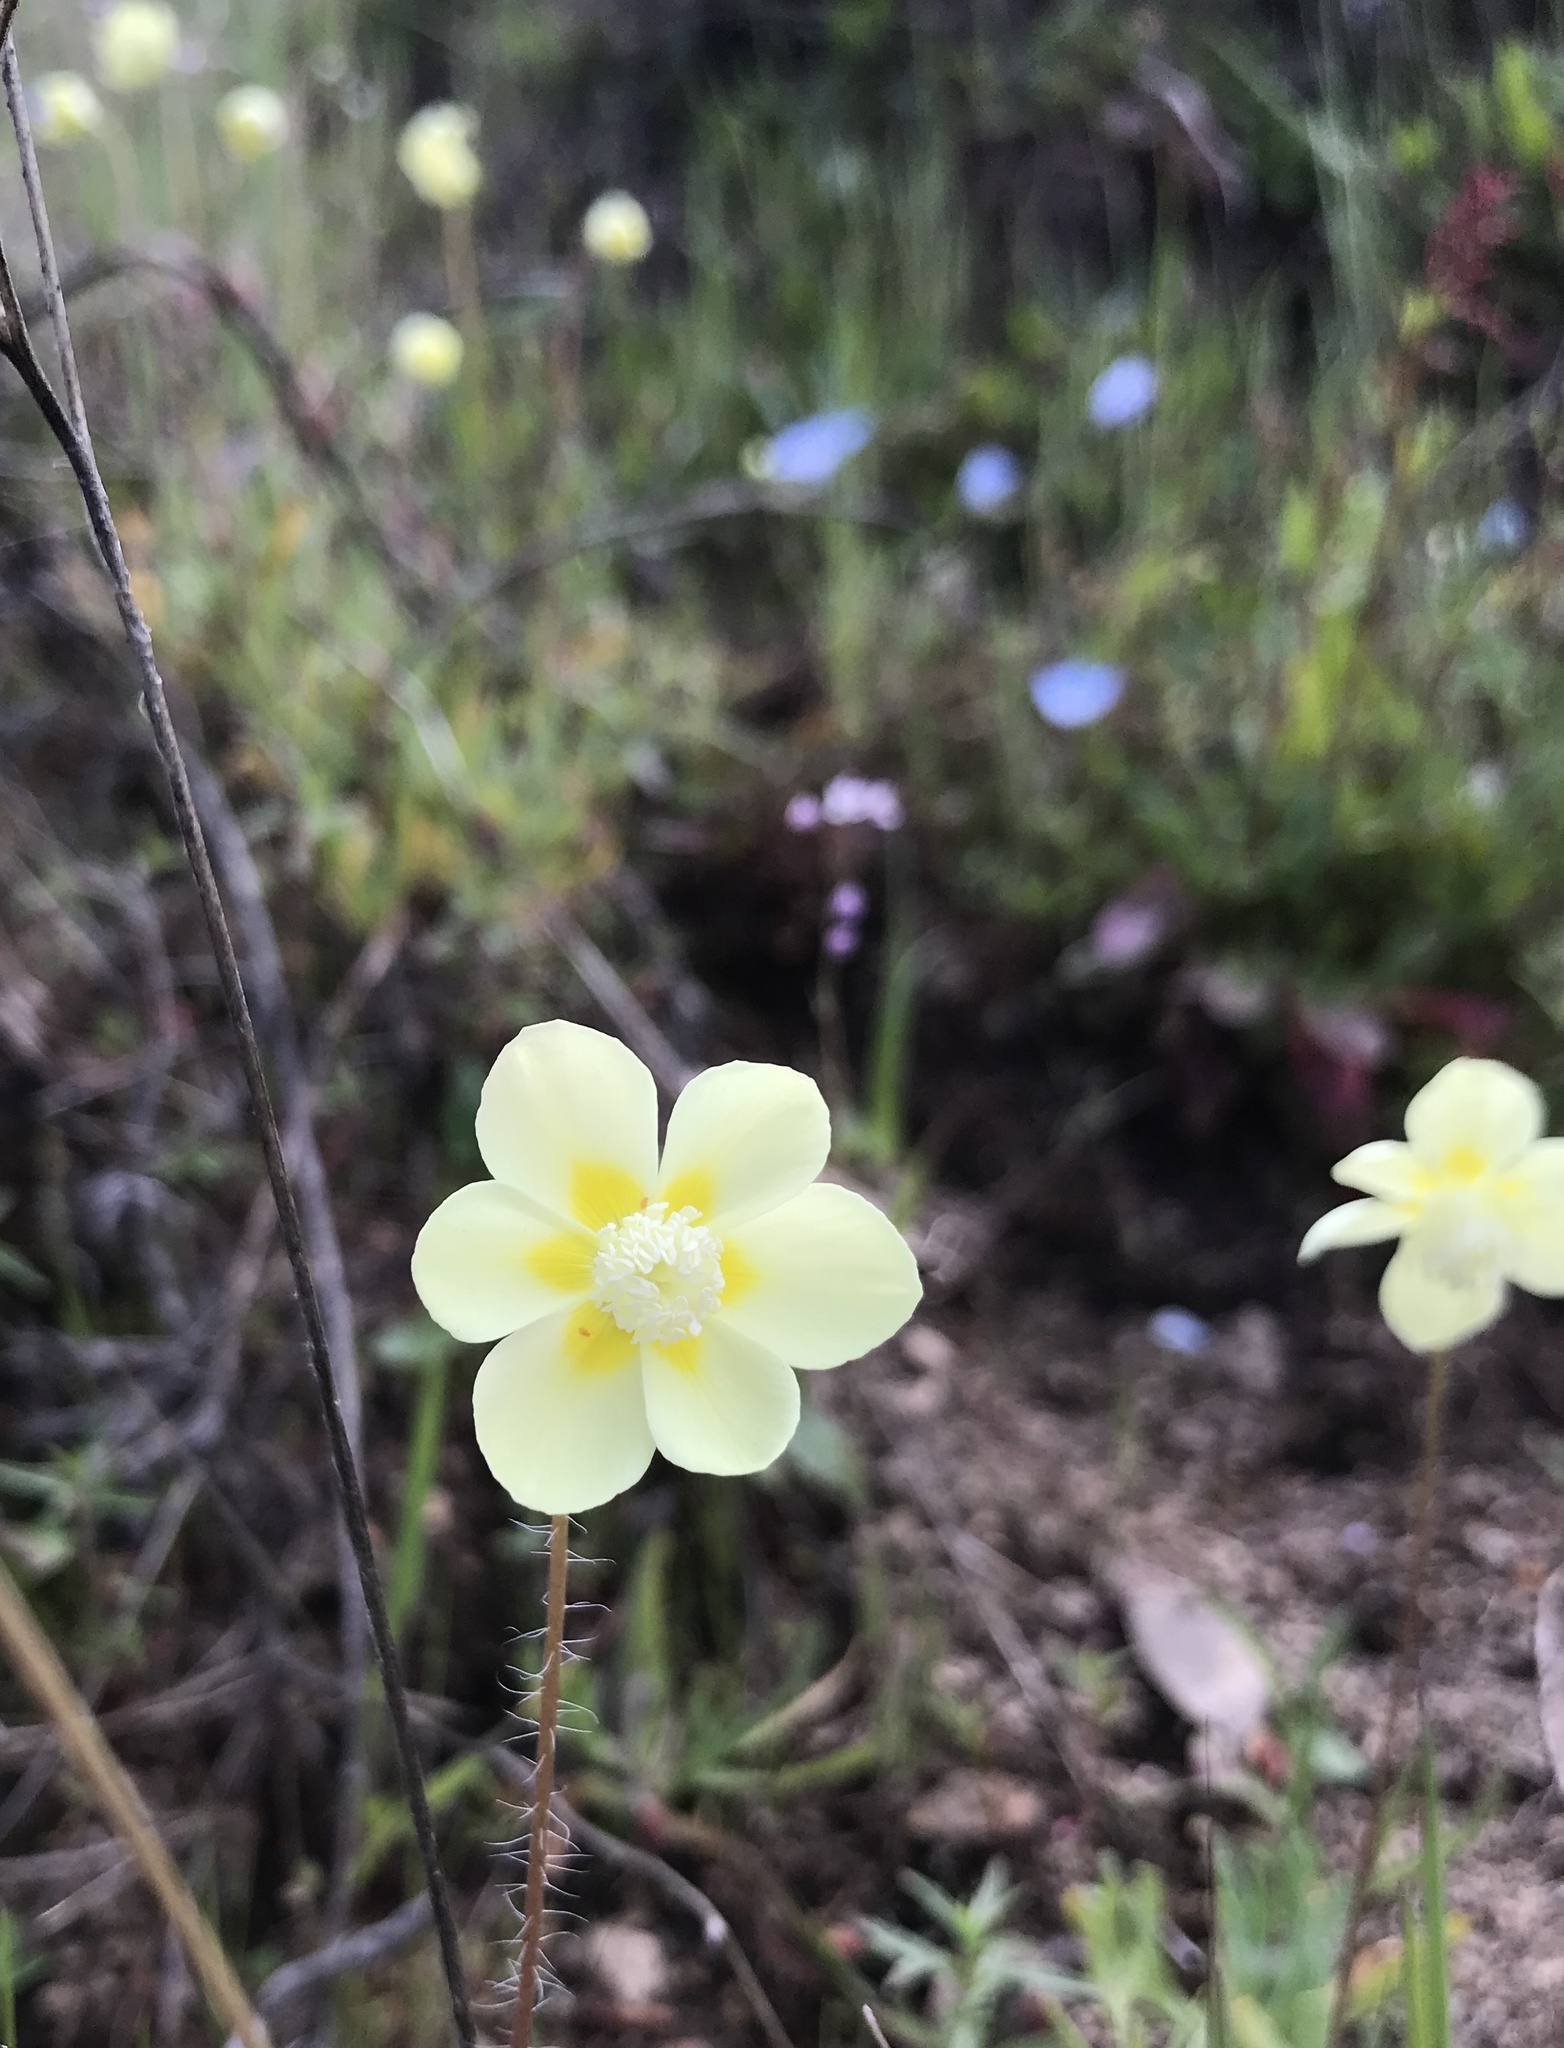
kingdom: Plantae
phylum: Tracheophyta
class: Magnoliopsida
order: Ranunculales
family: Papaveraceae
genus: Platystemon
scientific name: Platystemon californicus
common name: Cream-cups
